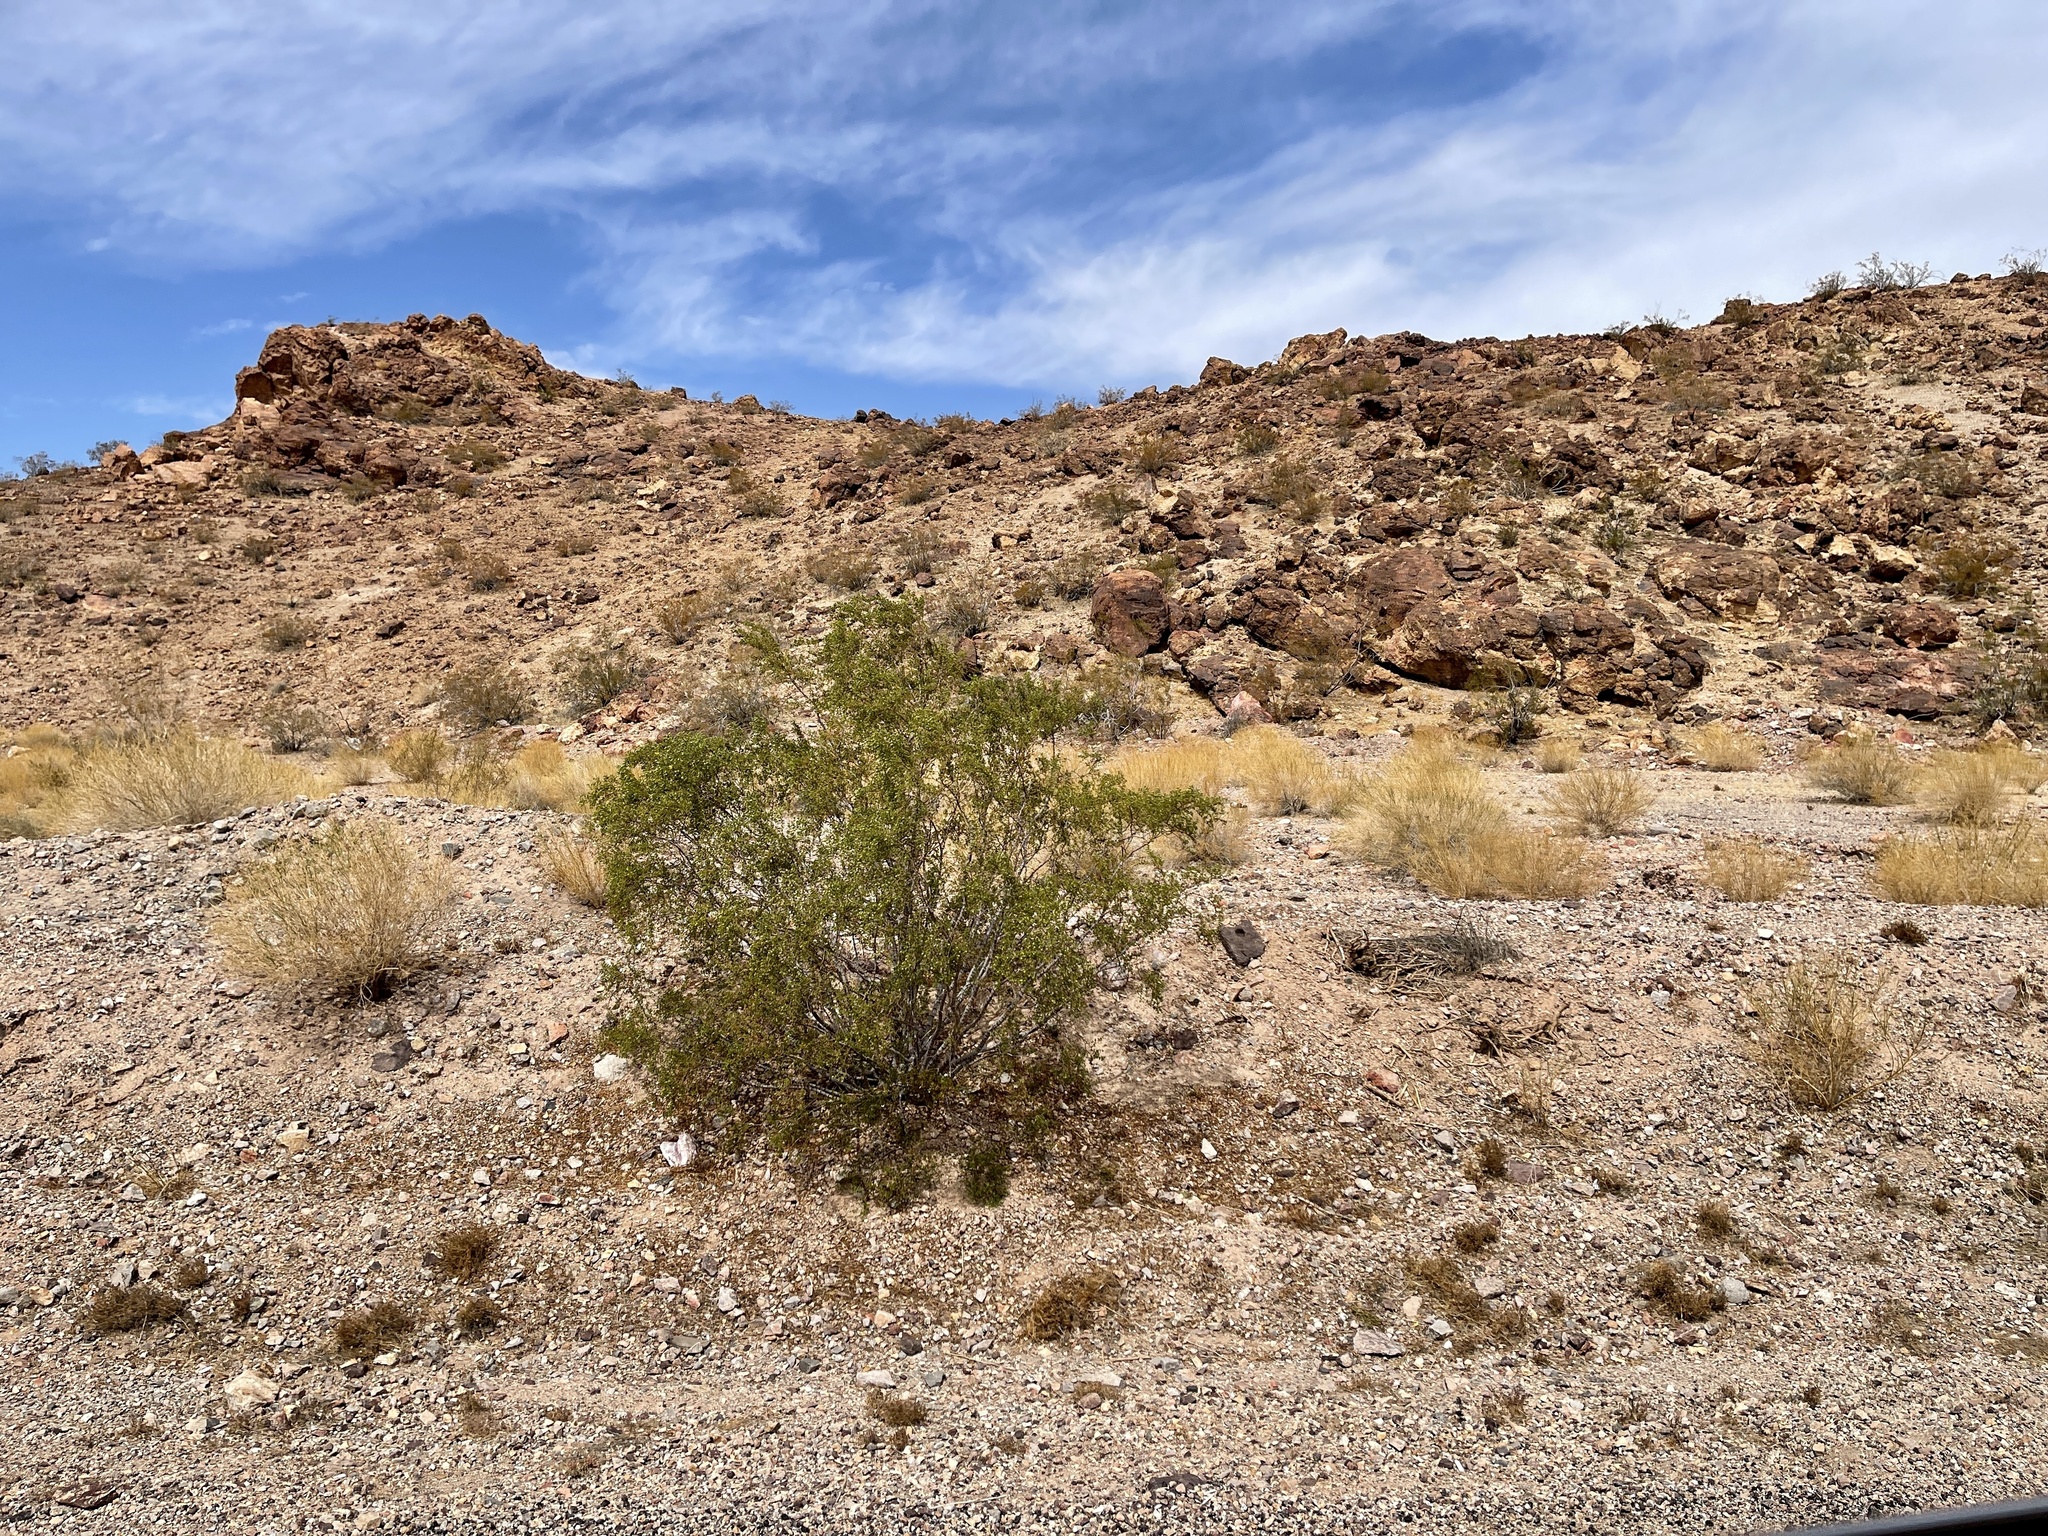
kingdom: Plantae
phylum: Tracheophyta
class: Magnoliopsida
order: Zygophyllales
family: Zygophyllaceae
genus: Larrea
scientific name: Larrea tridentata
